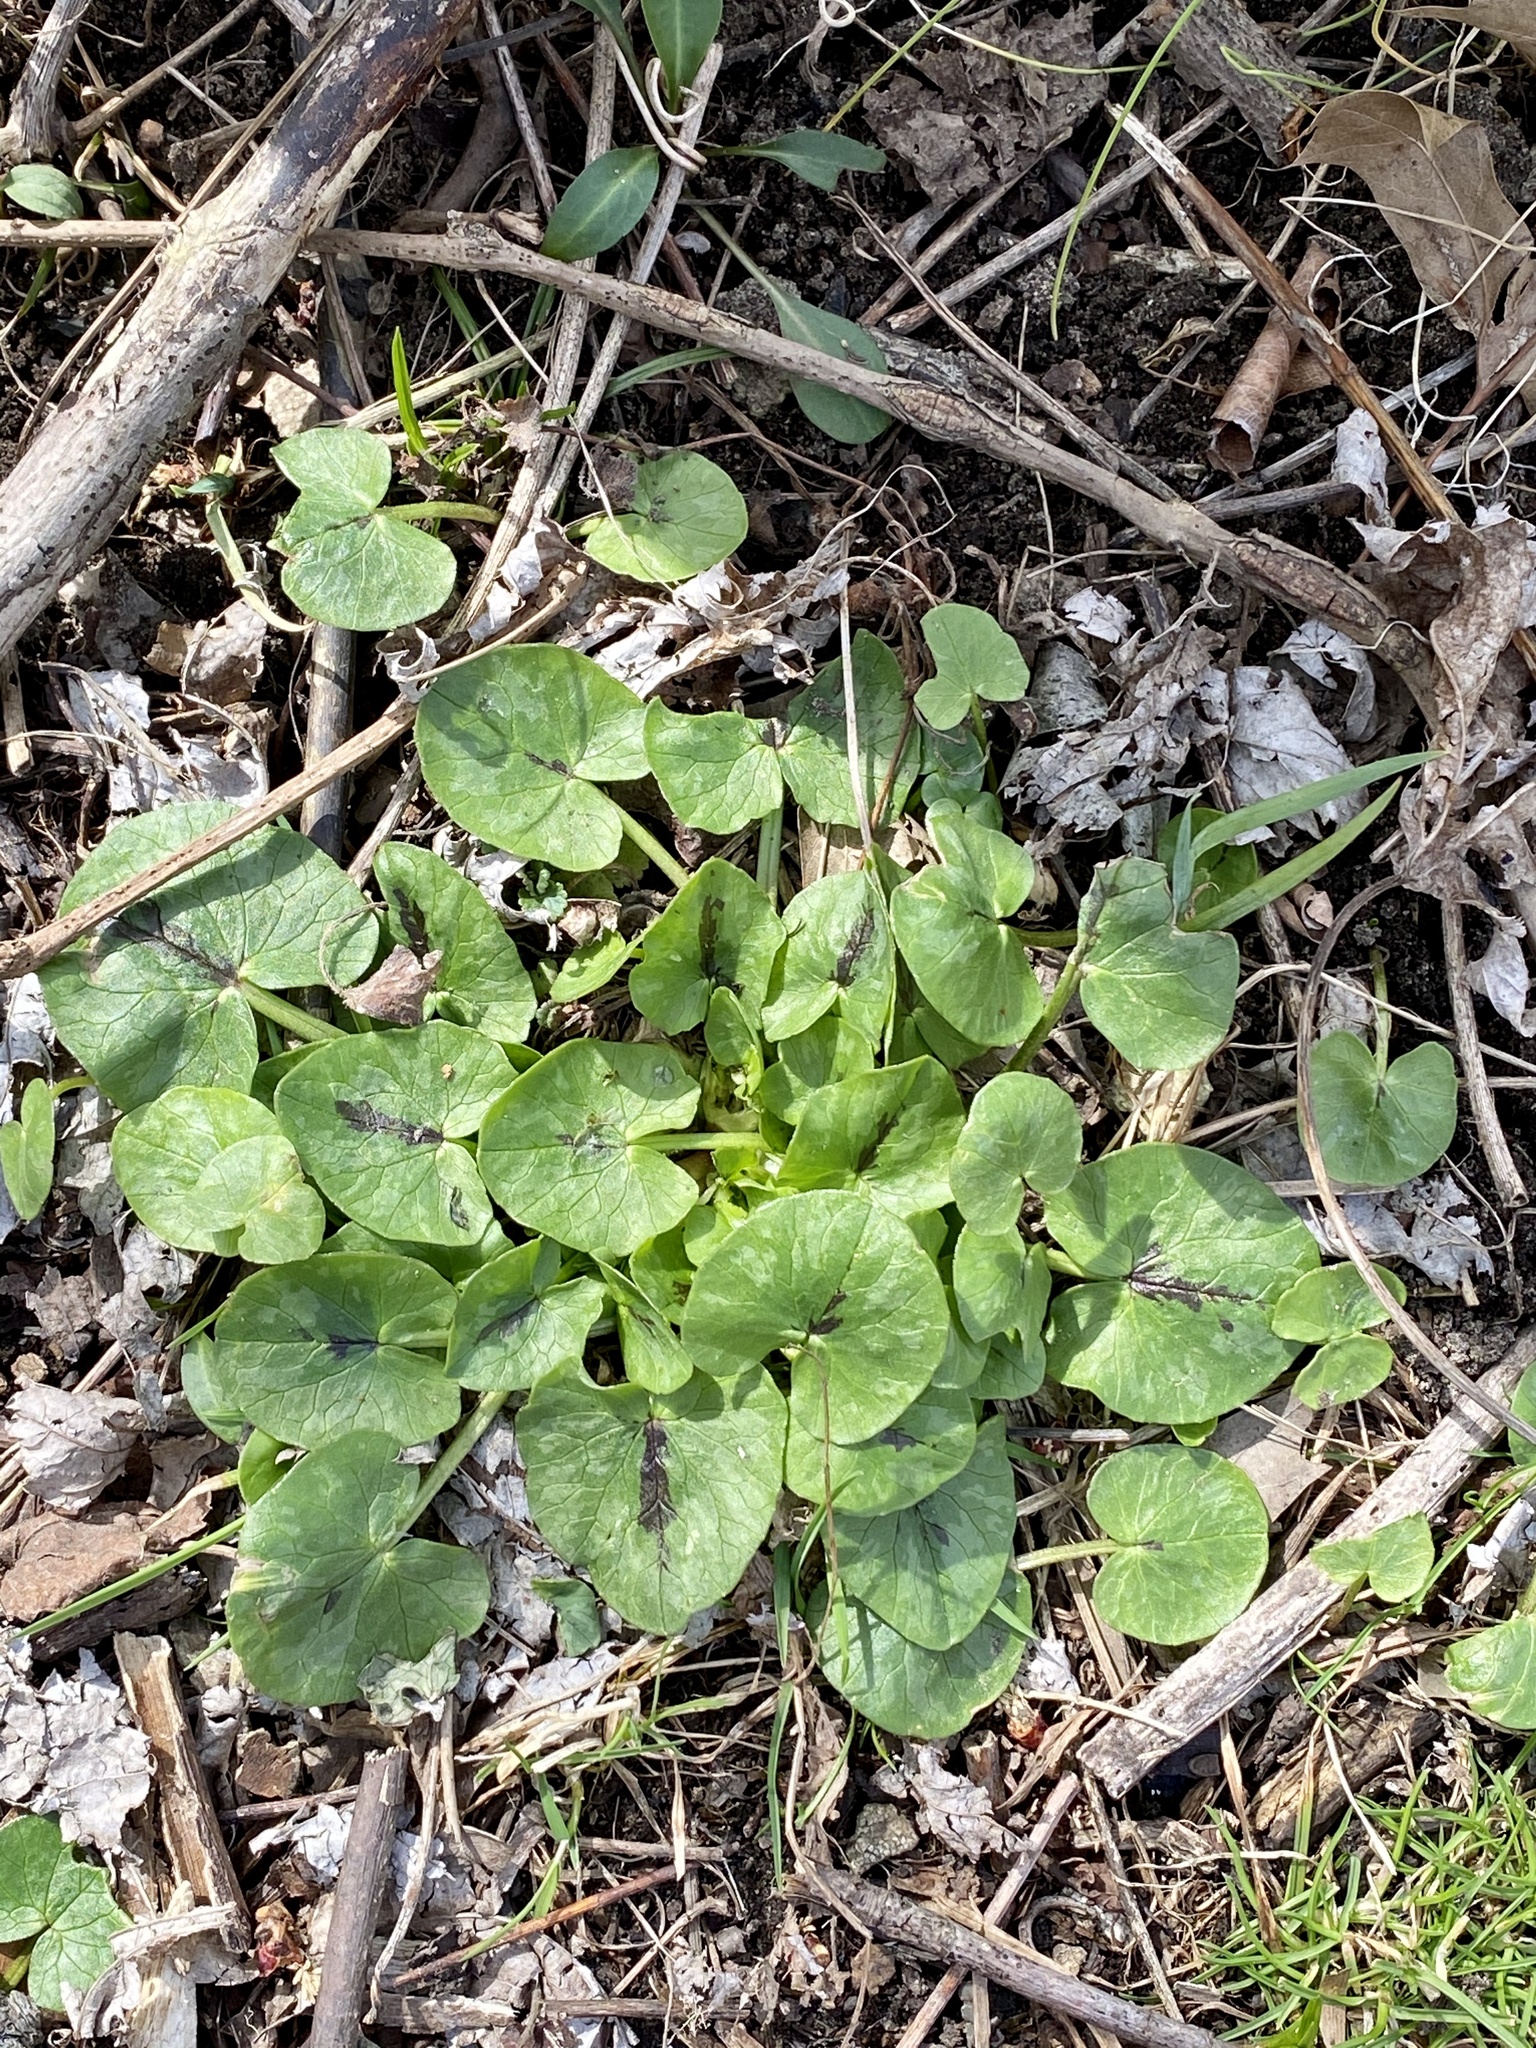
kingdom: Plantae
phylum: Tracheophyta
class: Magnoliopsida
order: Ranunculales
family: Ranunculaceae
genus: Ficaria
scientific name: Ficaria verna
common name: Lesser celandine
